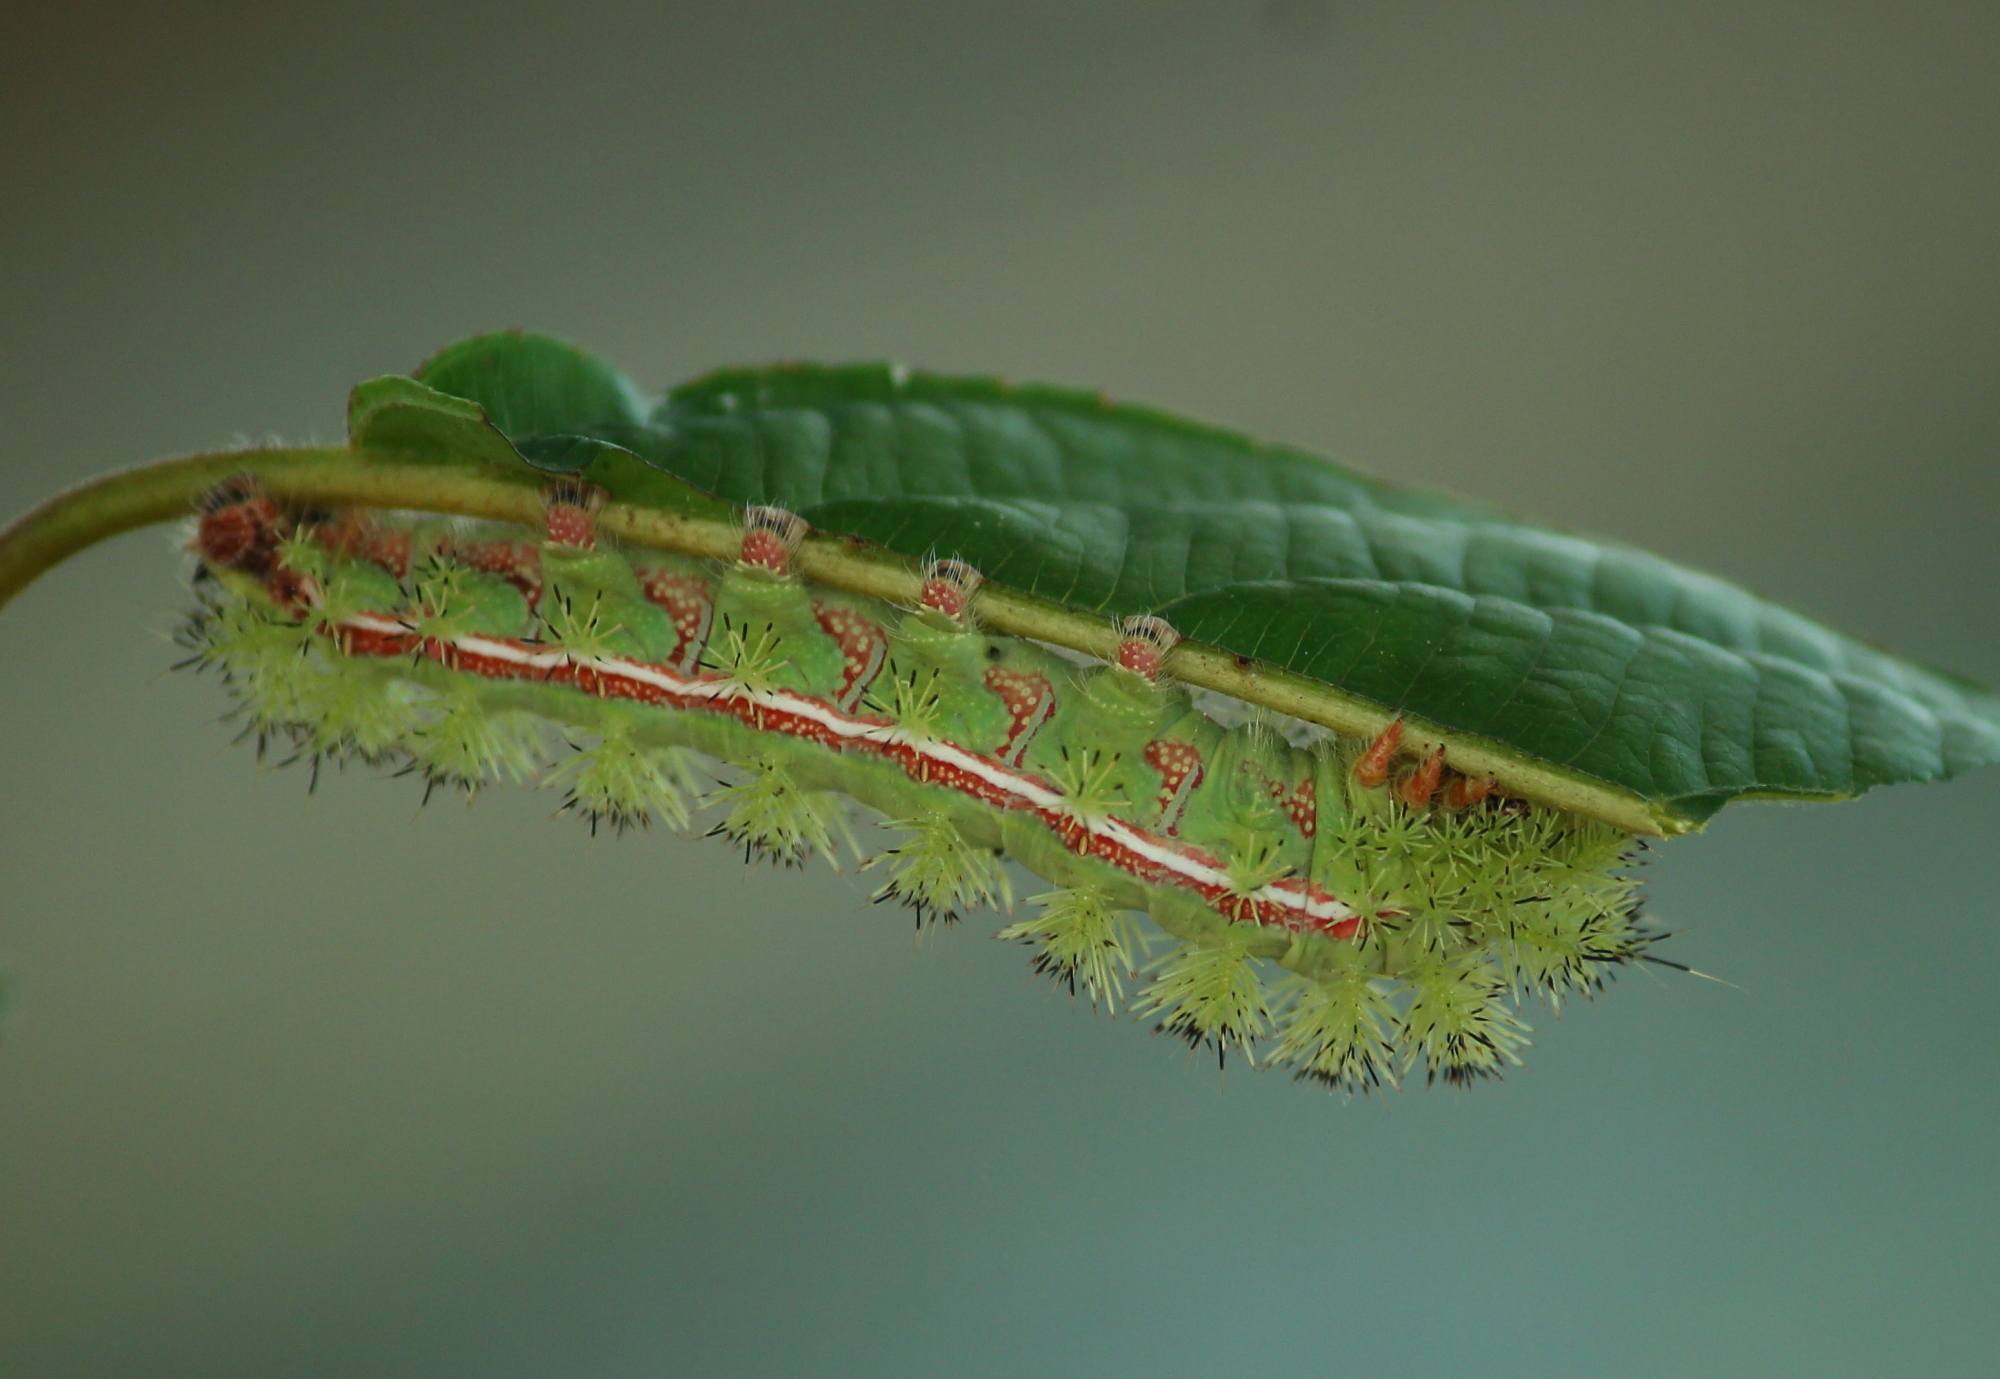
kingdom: Animalia
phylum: Arthropoda
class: Insecta
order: Lepidoptera
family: Saturniidae
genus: Automeris
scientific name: Automeris io
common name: Io moth
